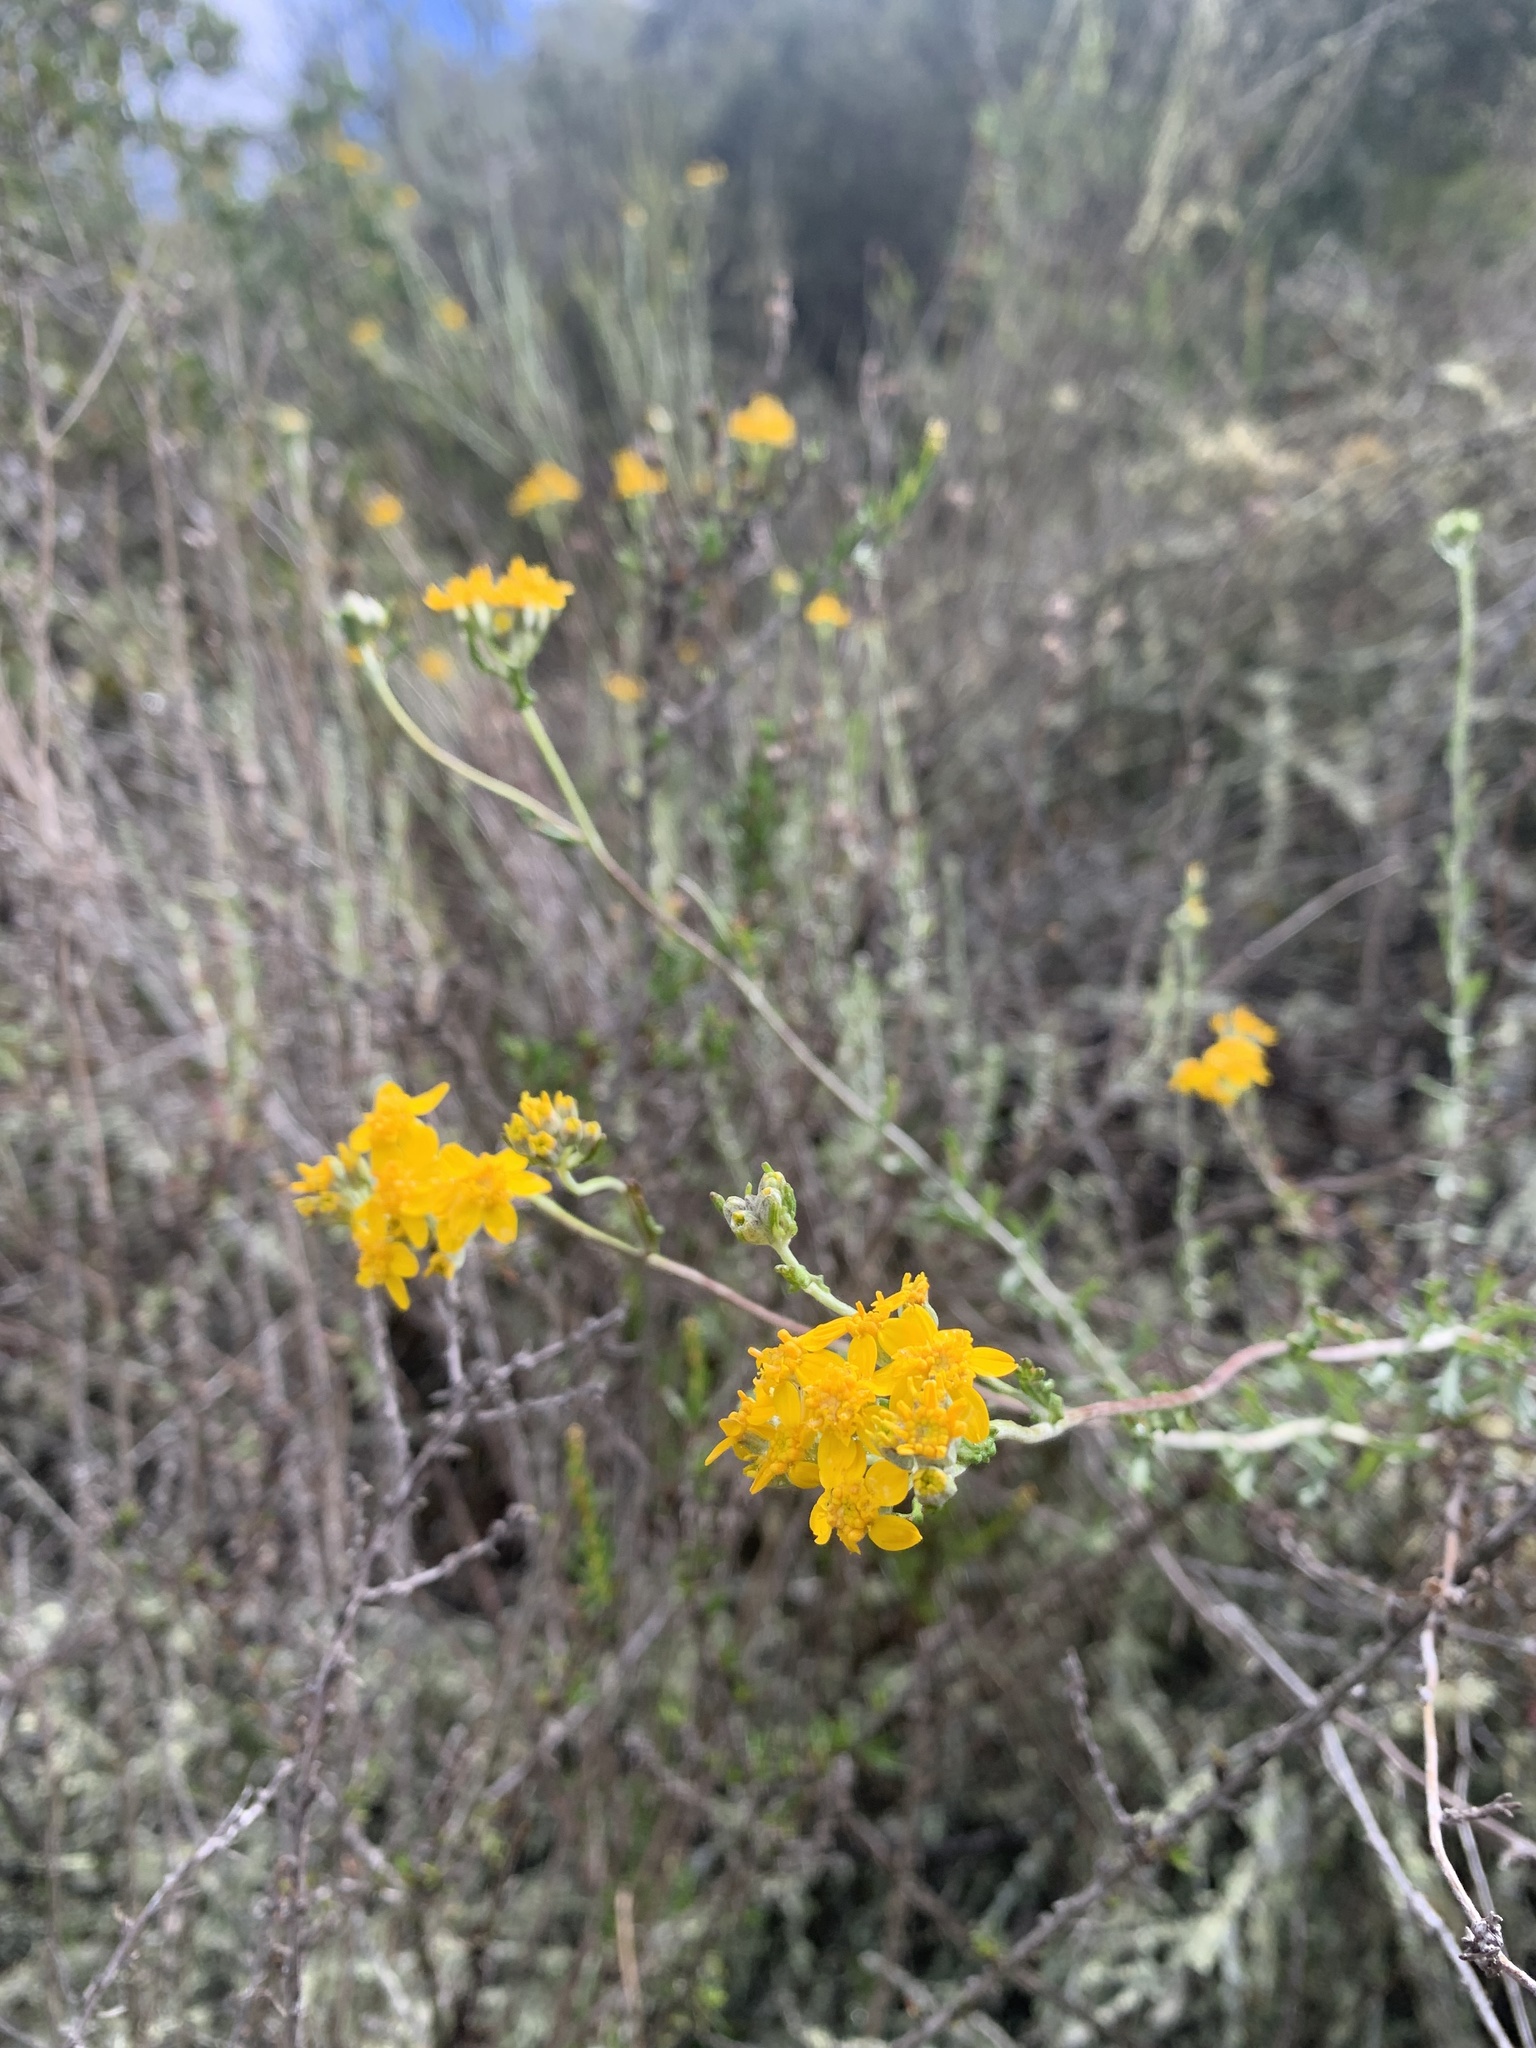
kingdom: Plantae
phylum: Tracheophyta
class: Magnoliopsida
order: Asterales
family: Asteraceae
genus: Eriophyllum
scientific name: Eriophyllum confertiflorum
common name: Golden-yarrow
